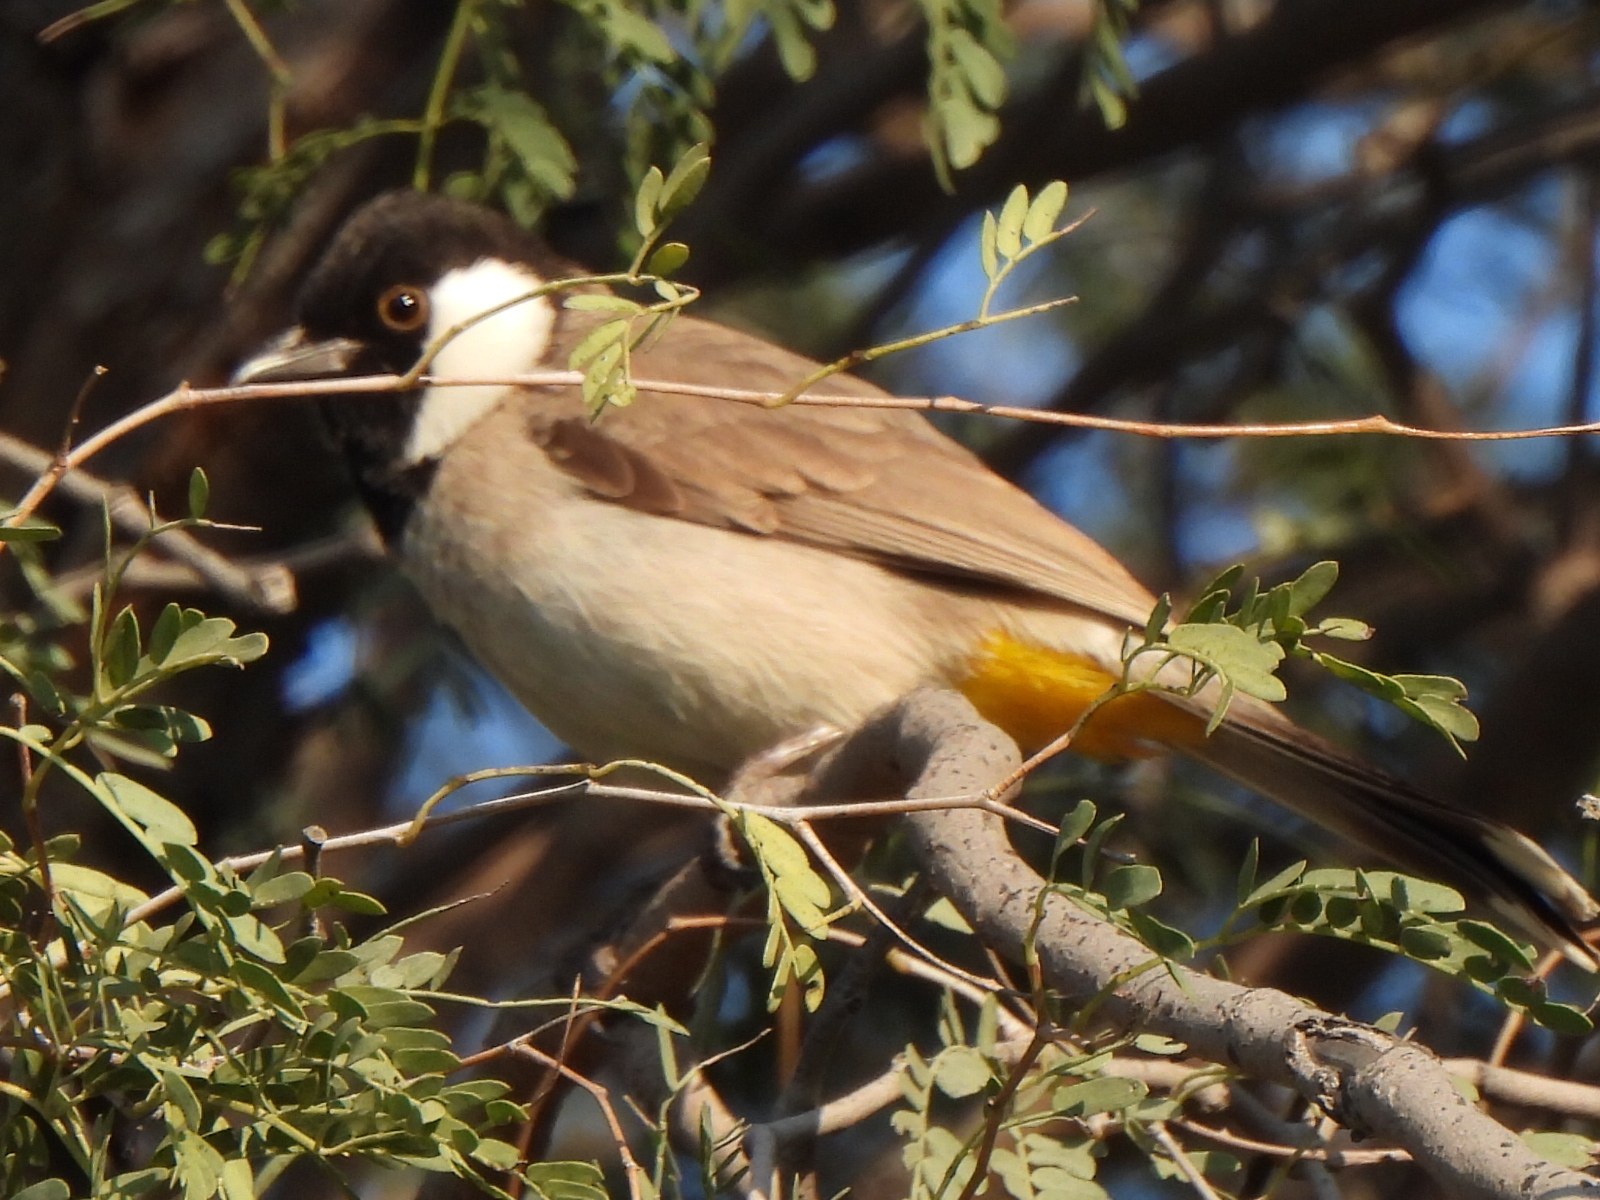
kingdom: Animalia
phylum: Chordata
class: Aves
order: Passeriformes
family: Pycnonotidae
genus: Pycnonotus
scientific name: Pycnonotus leucotis
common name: White-eared bulbul
